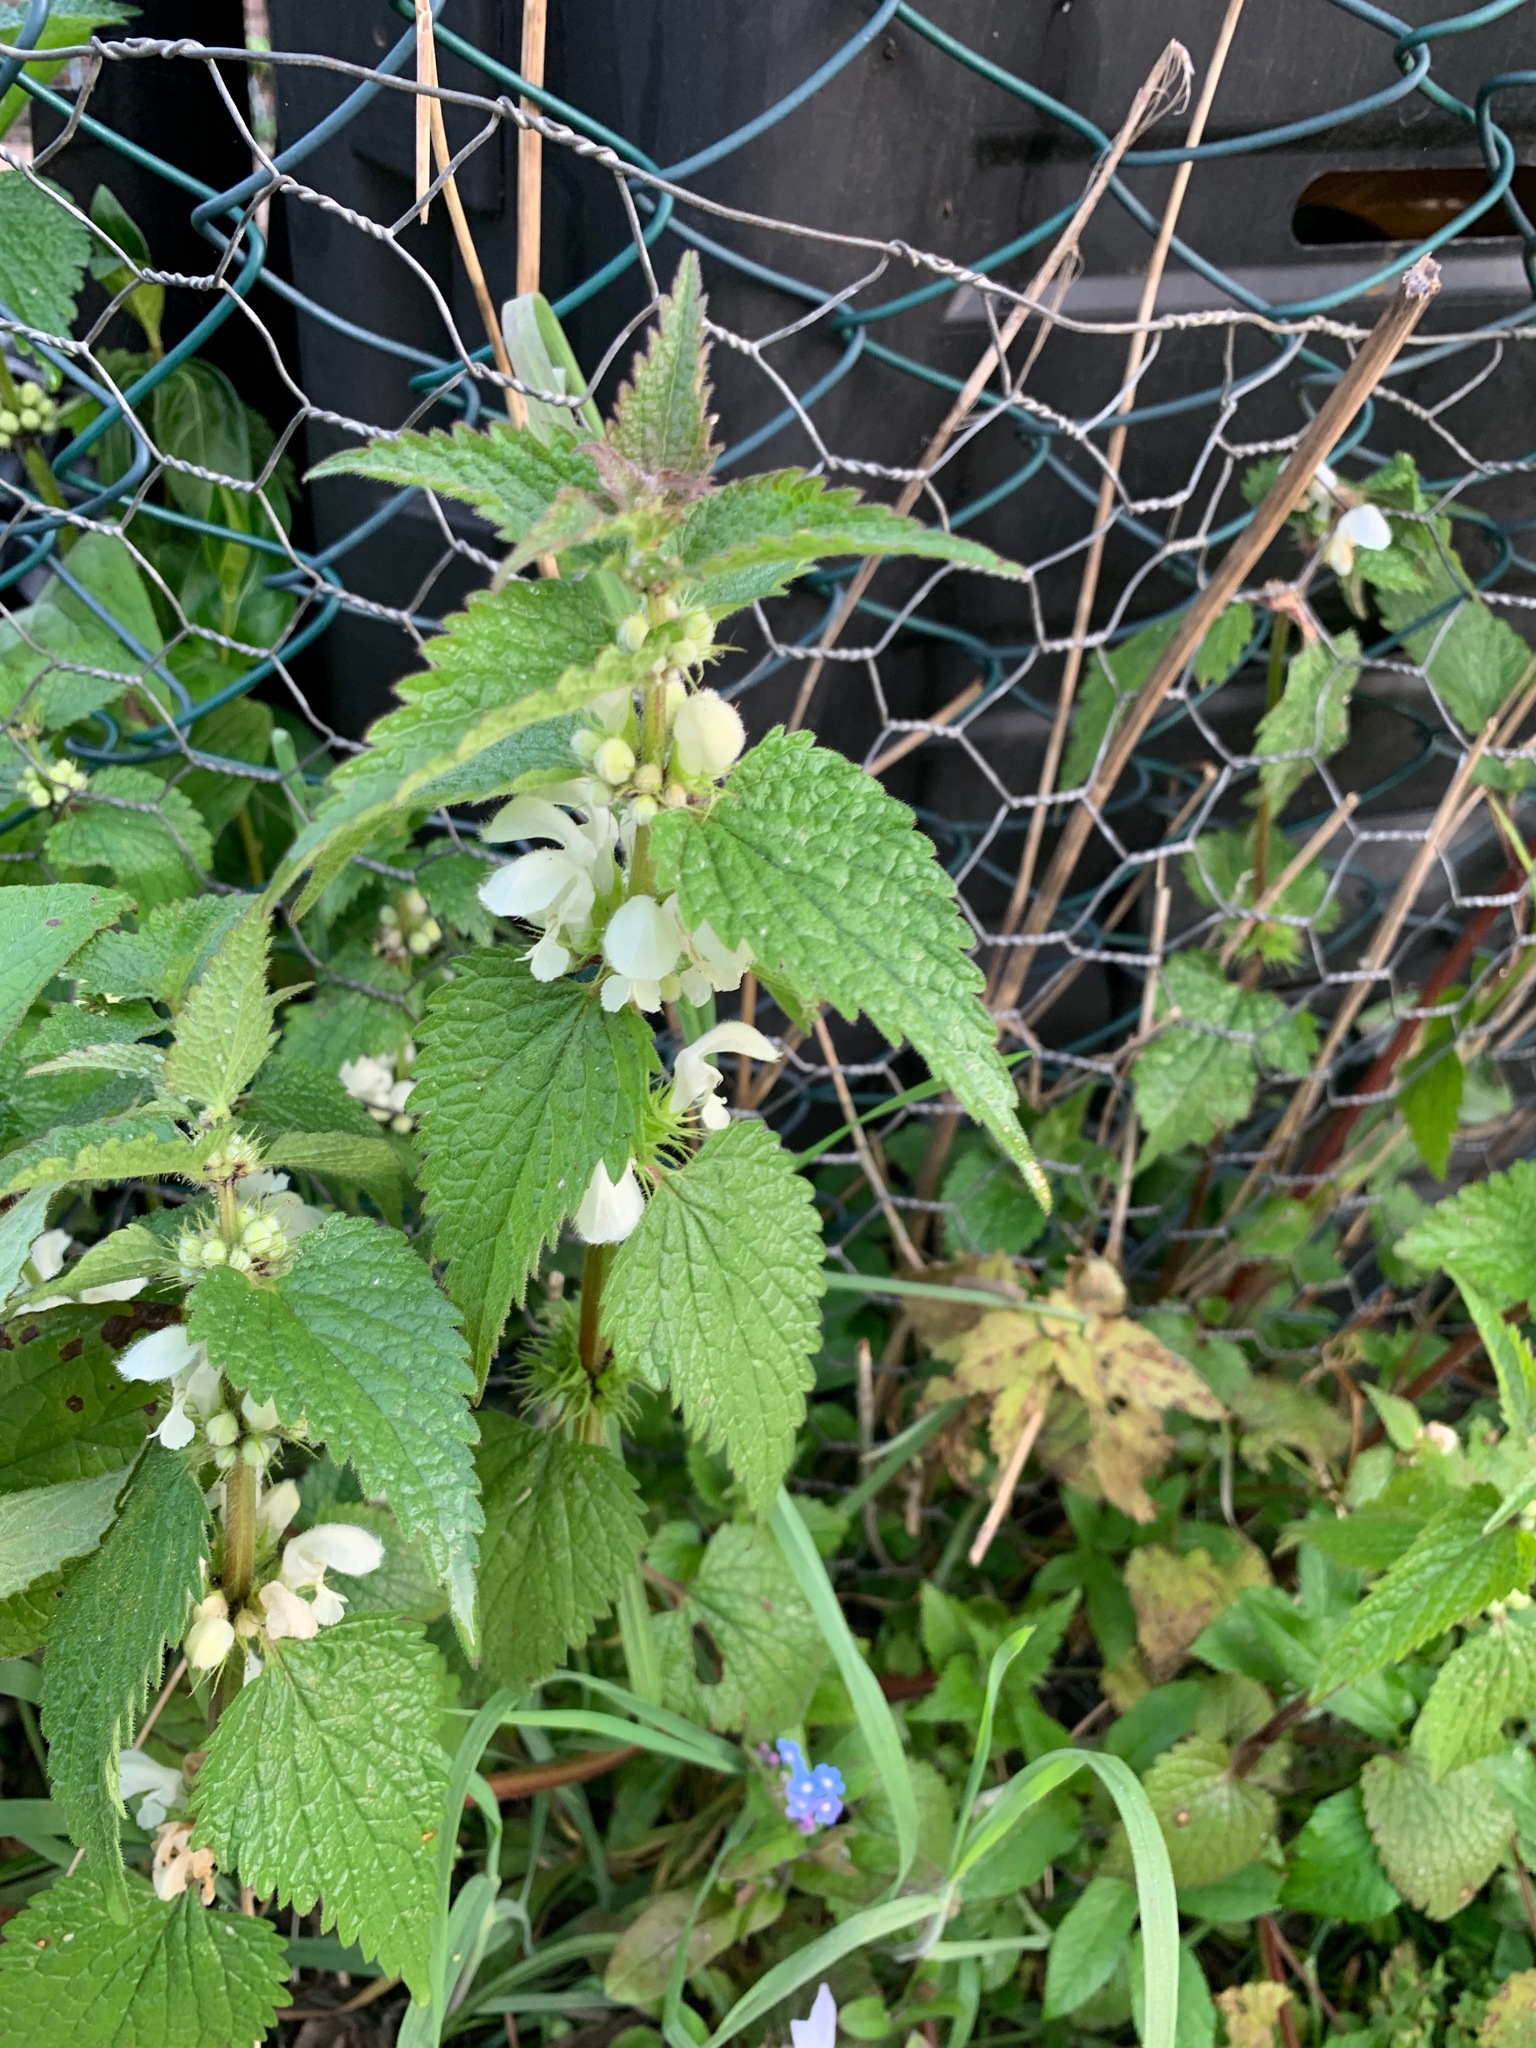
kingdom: Plantae
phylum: Tracheophyta
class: Magnoliopsida
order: Lamiales
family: Lamiaceae
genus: Lamium
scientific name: Lamium album
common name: White dead-nettle
